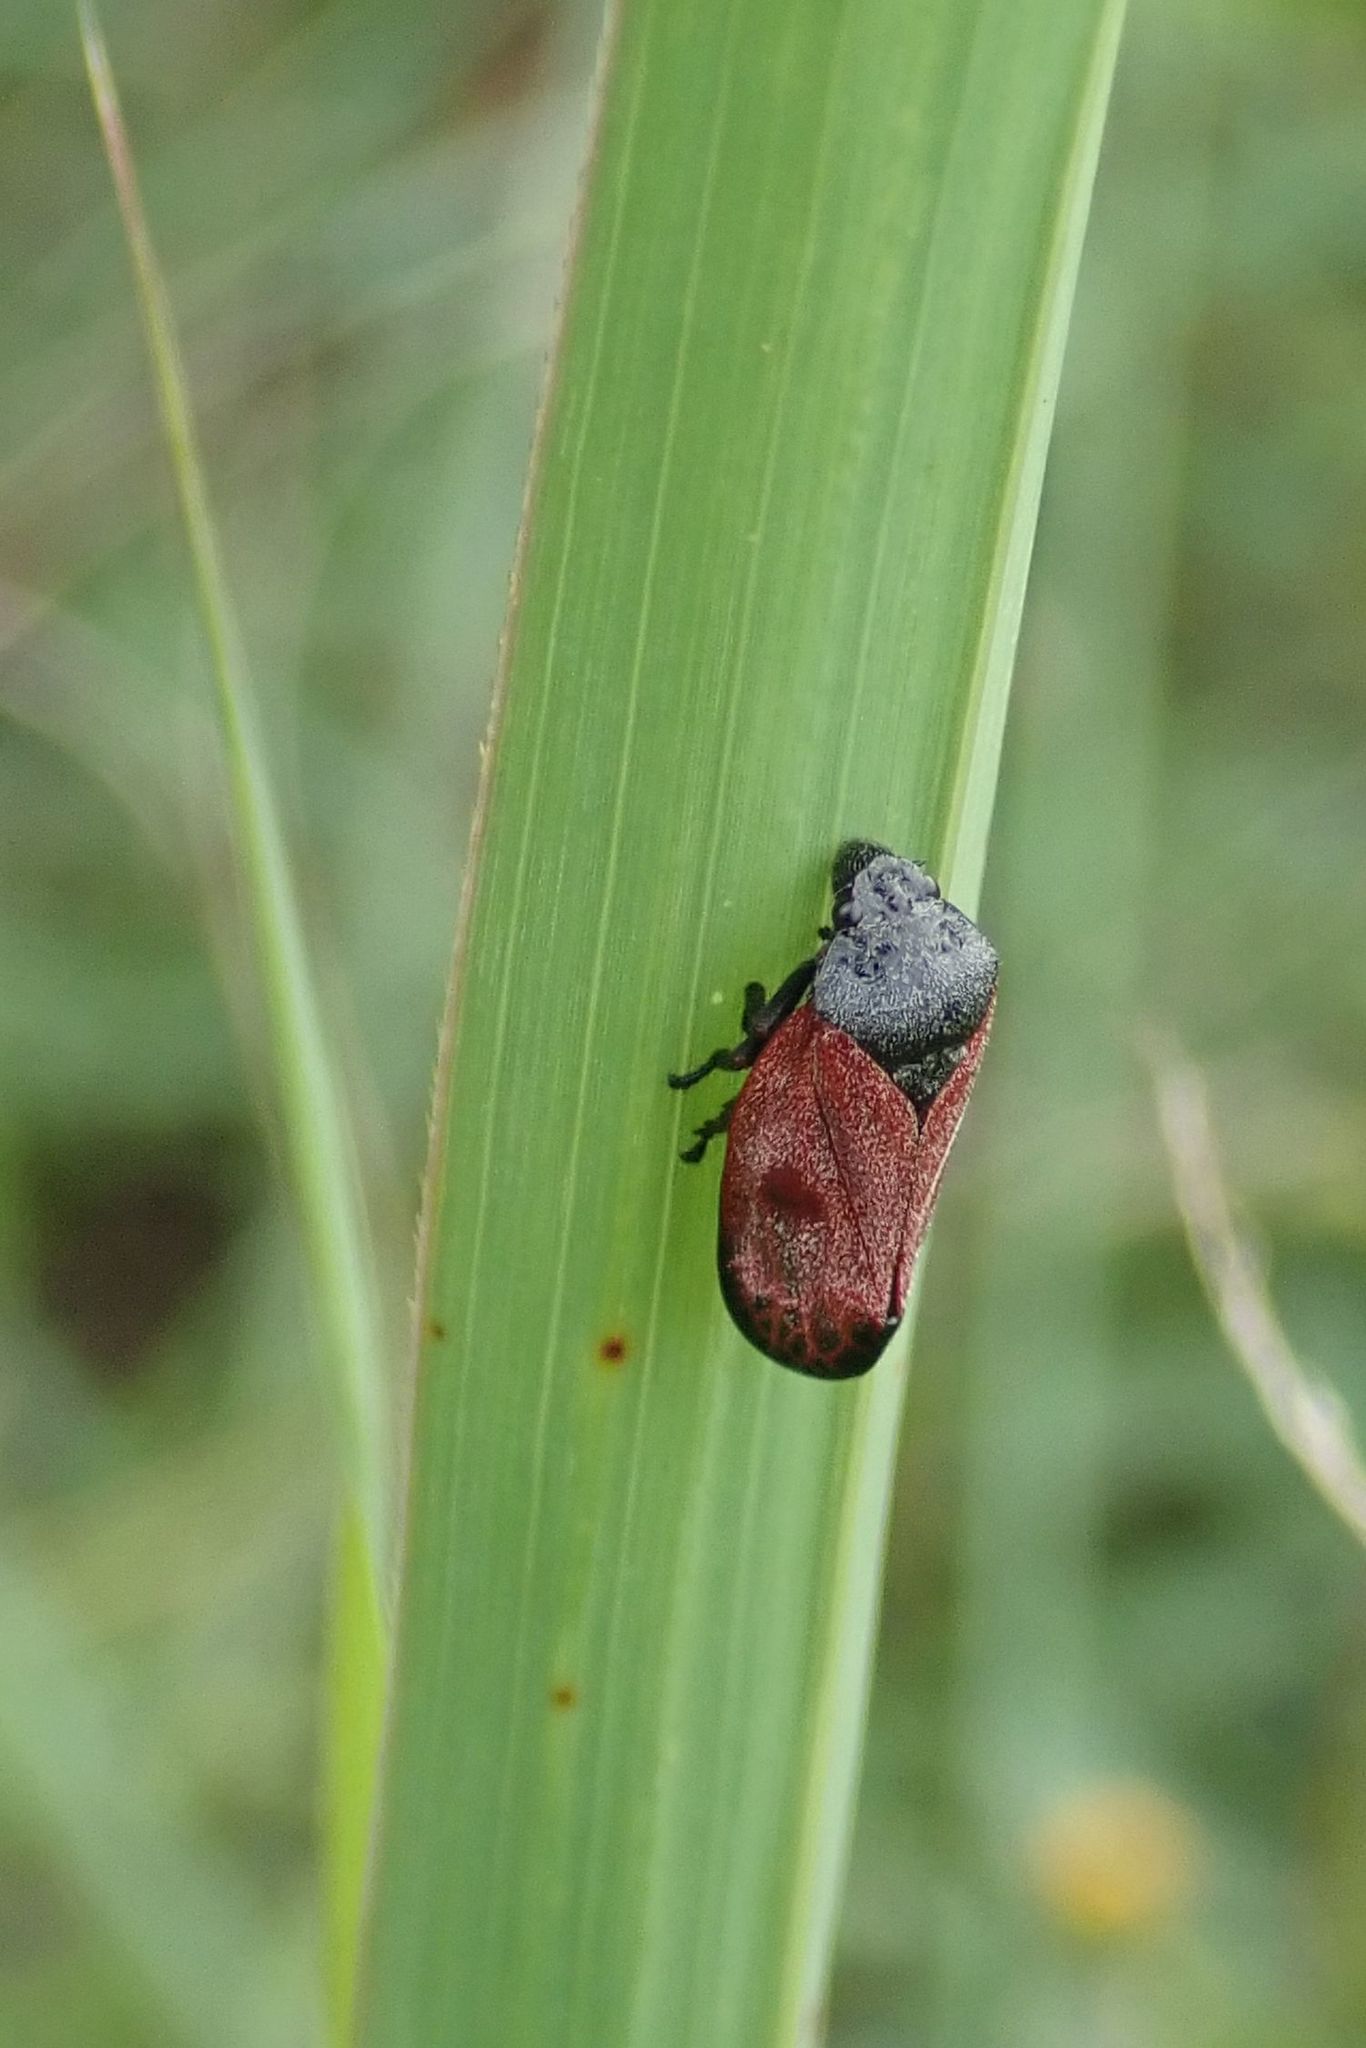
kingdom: Animalia
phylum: Arthropoda
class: Insecta
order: Hemiptera
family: Cercopidae
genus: Locris
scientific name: Locris rubida
